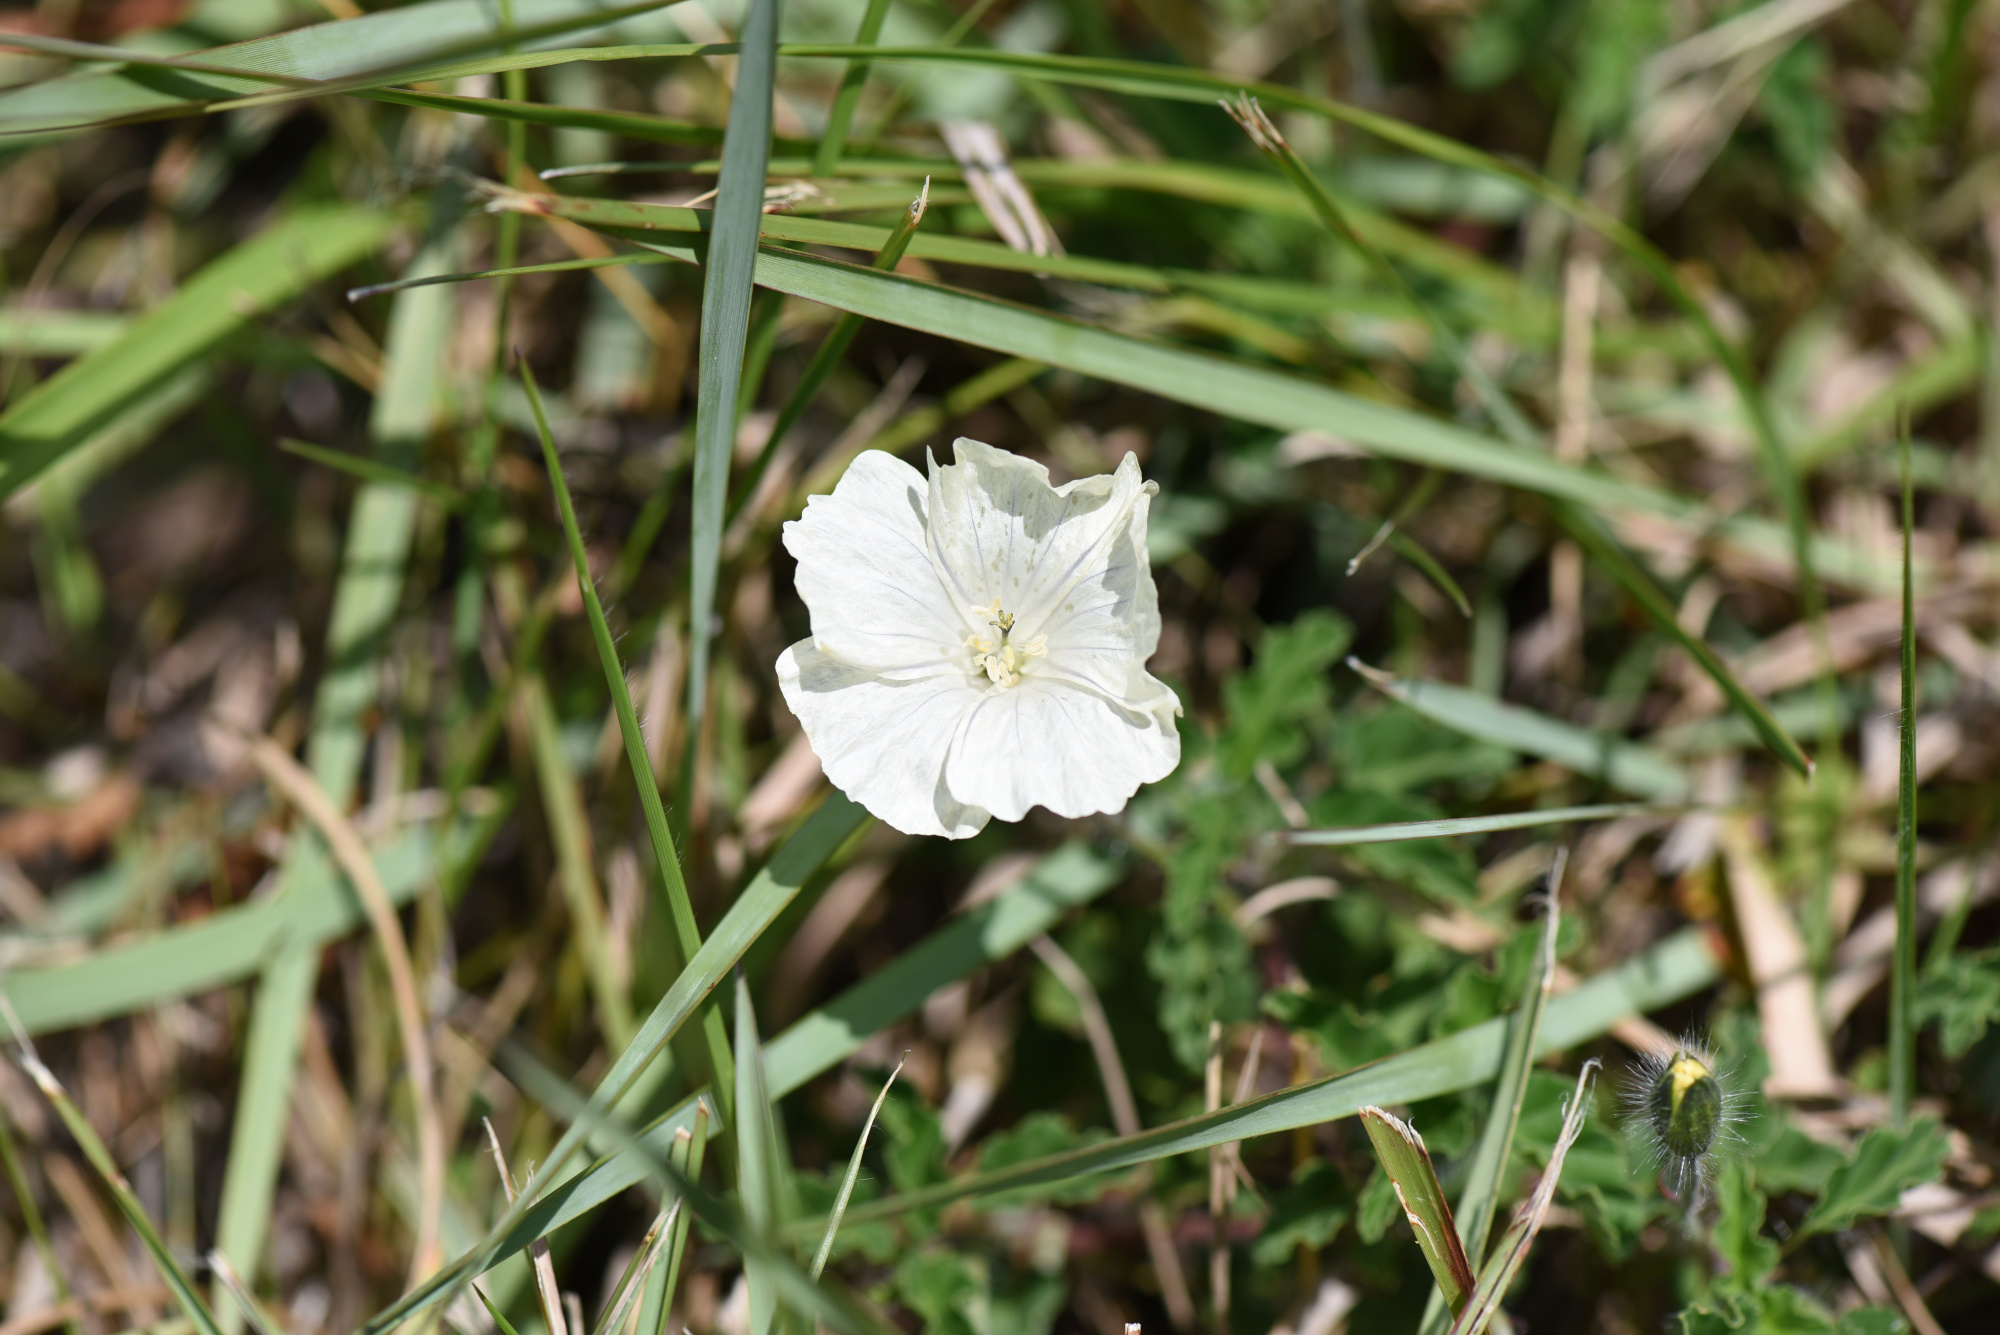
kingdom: Plantae
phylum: Tracheophyta
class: Magnoliopsida
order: Geraniales
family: Geraniaceae
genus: Monsonia
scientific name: Monsonia emarginata
